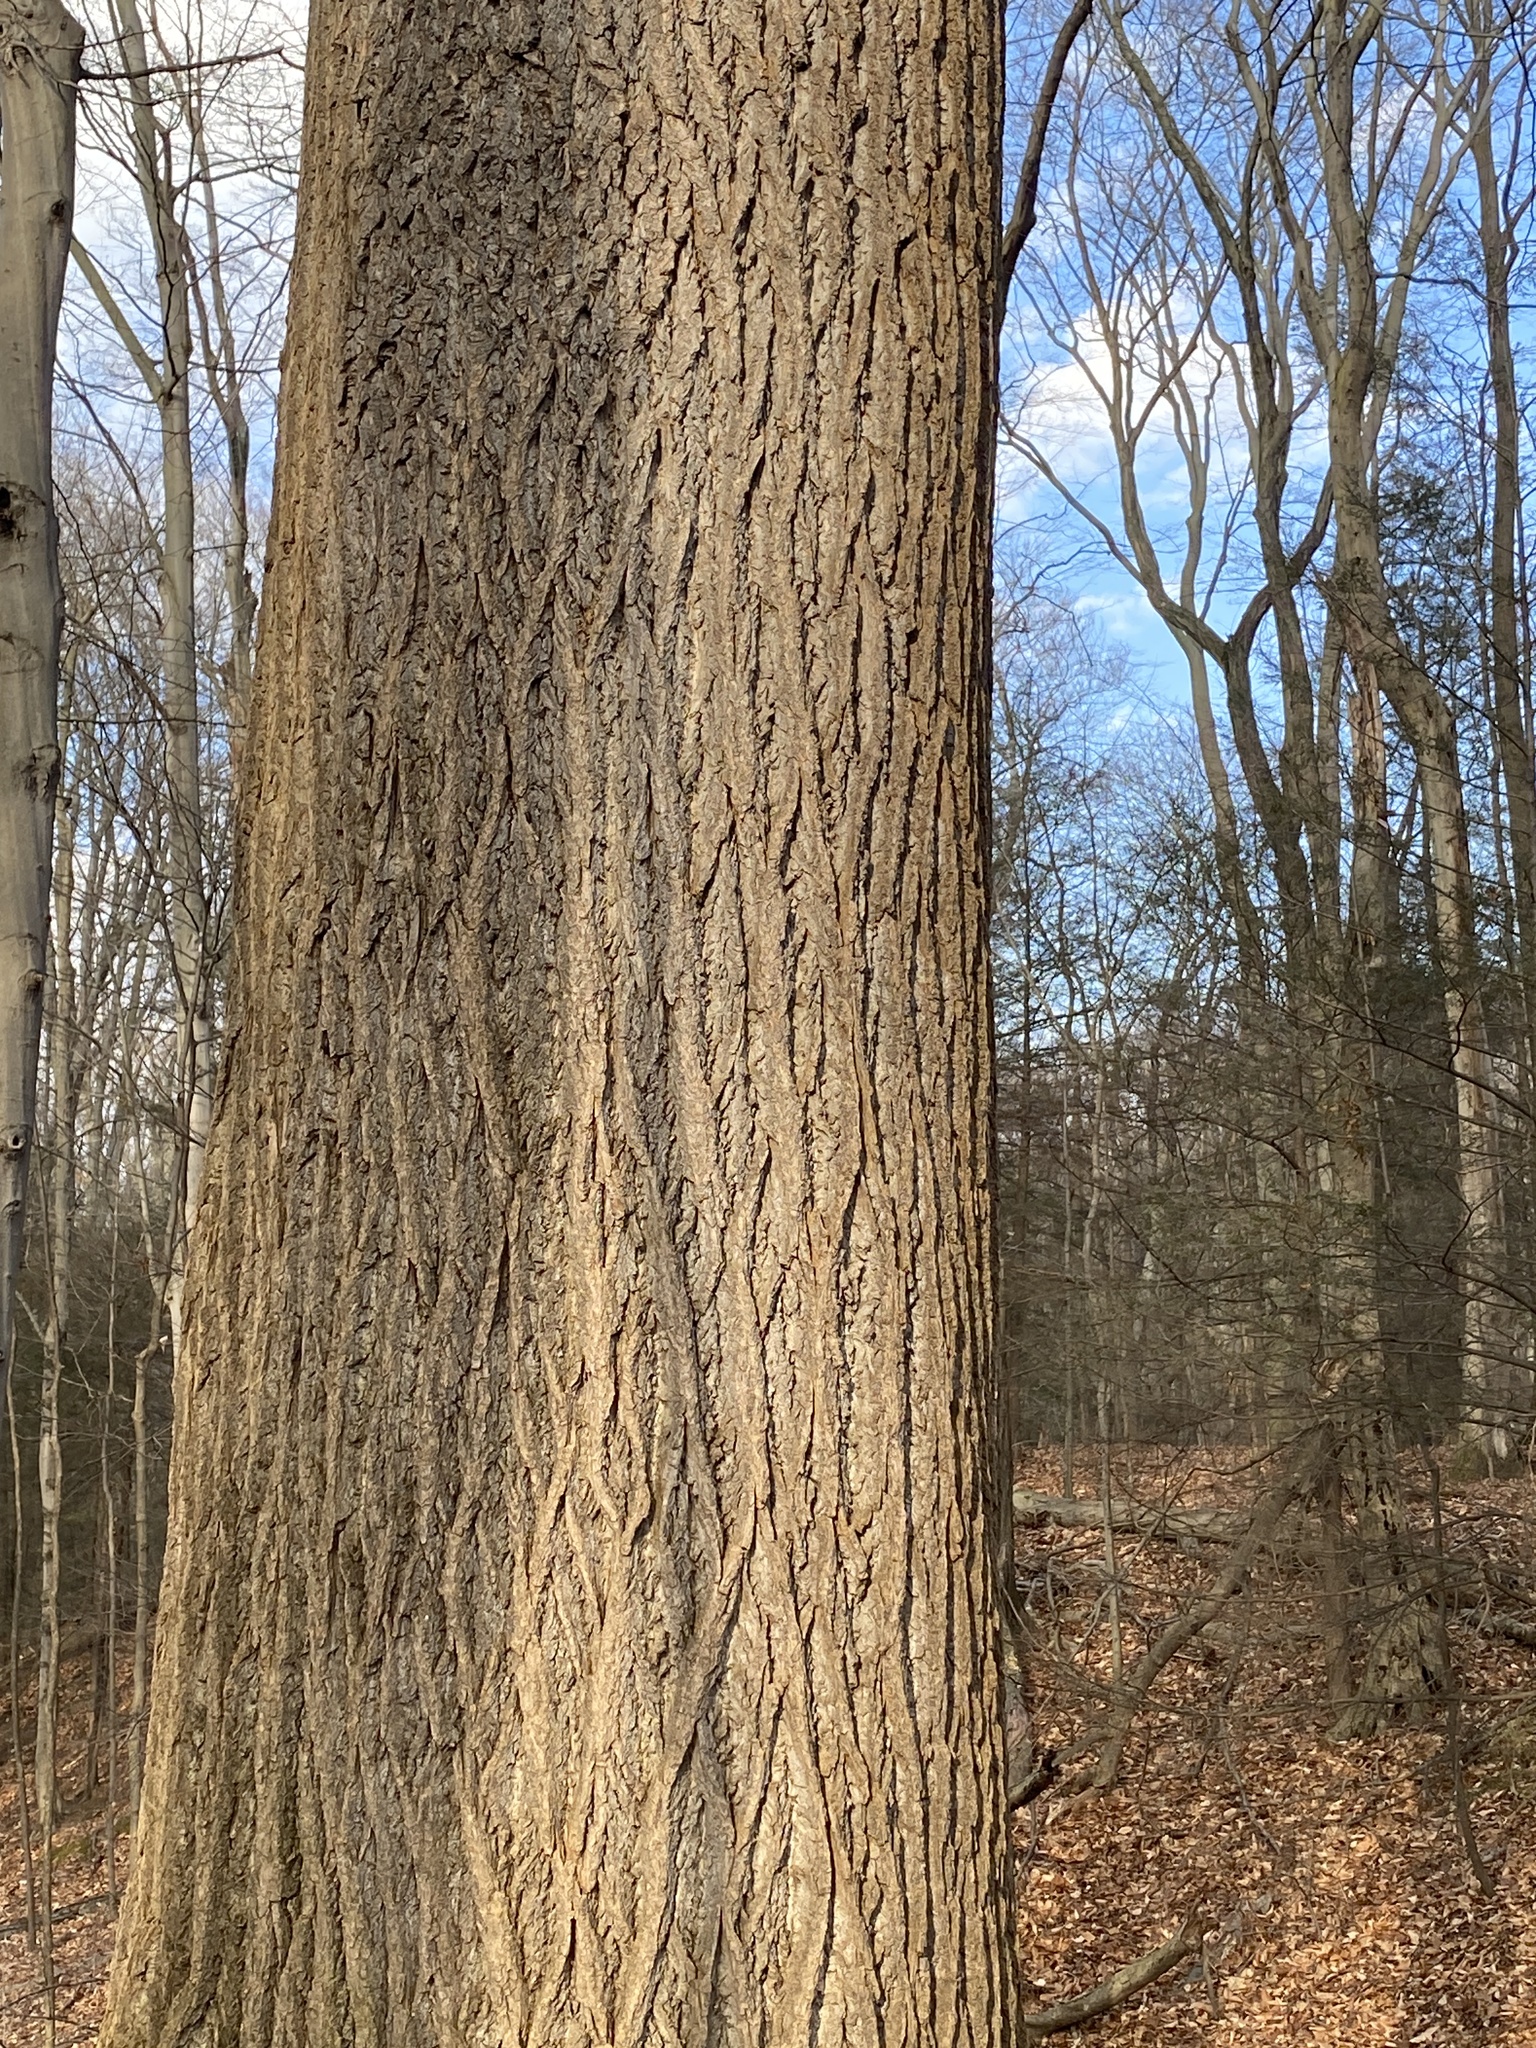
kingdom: Plantae
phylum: Tracheophyta
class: Magnoliopsida
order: Magnoliales
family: Magnoliaceae
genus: Liriodendron
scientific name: Liriodendron tulipifera
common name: Tulip tree
